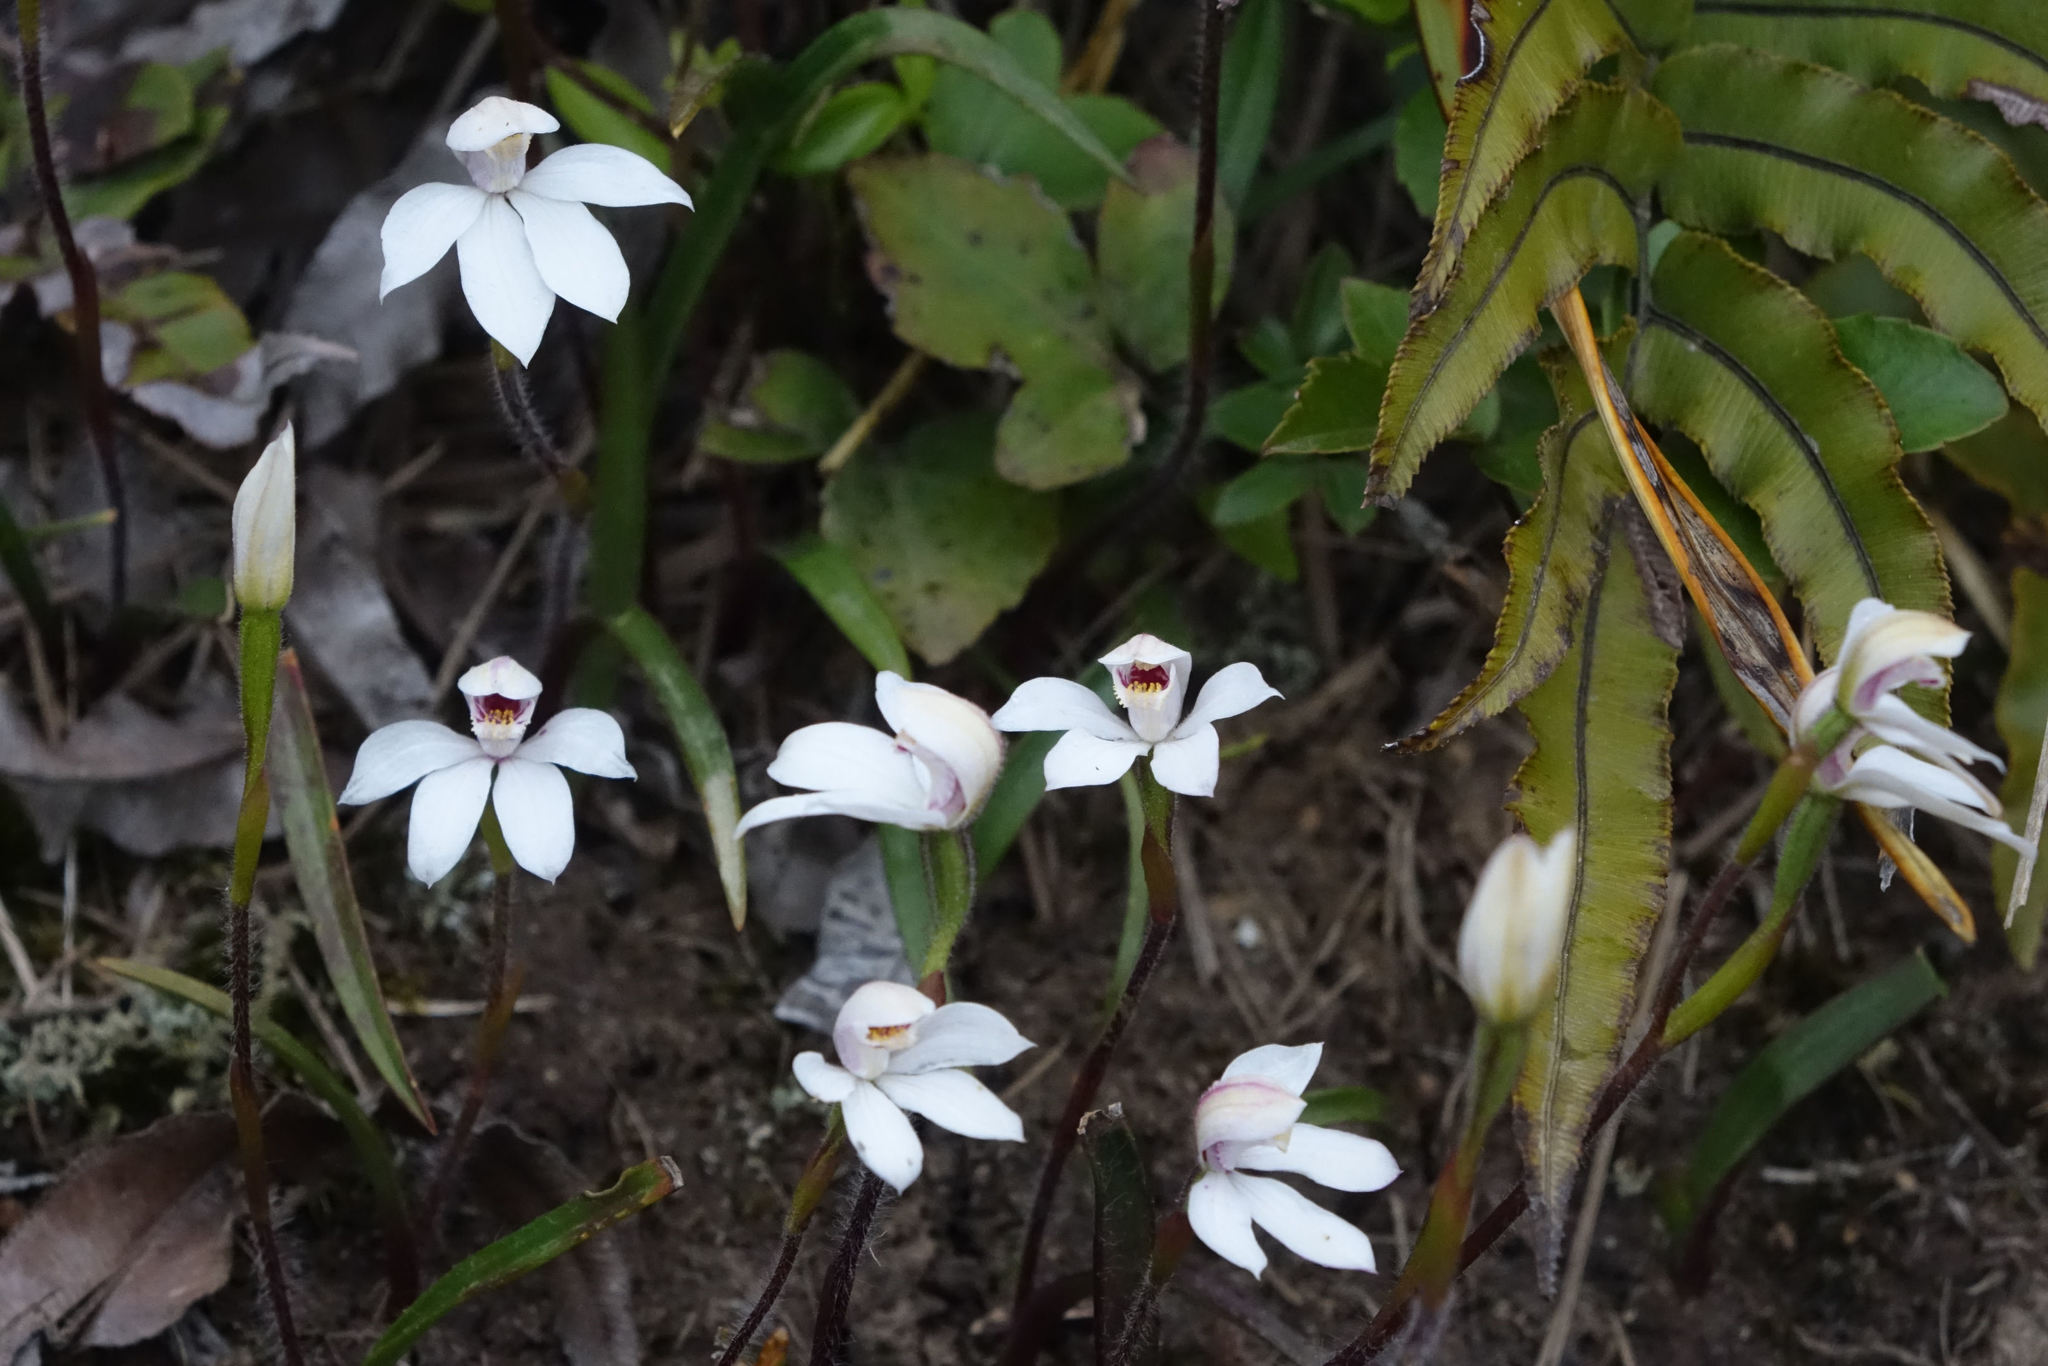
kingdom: Plantae
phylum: Tracheophyta
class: Liliopsida
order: Asparagales
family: Orchidaceae
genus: Caladenia
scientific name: Caladenia lyallii
